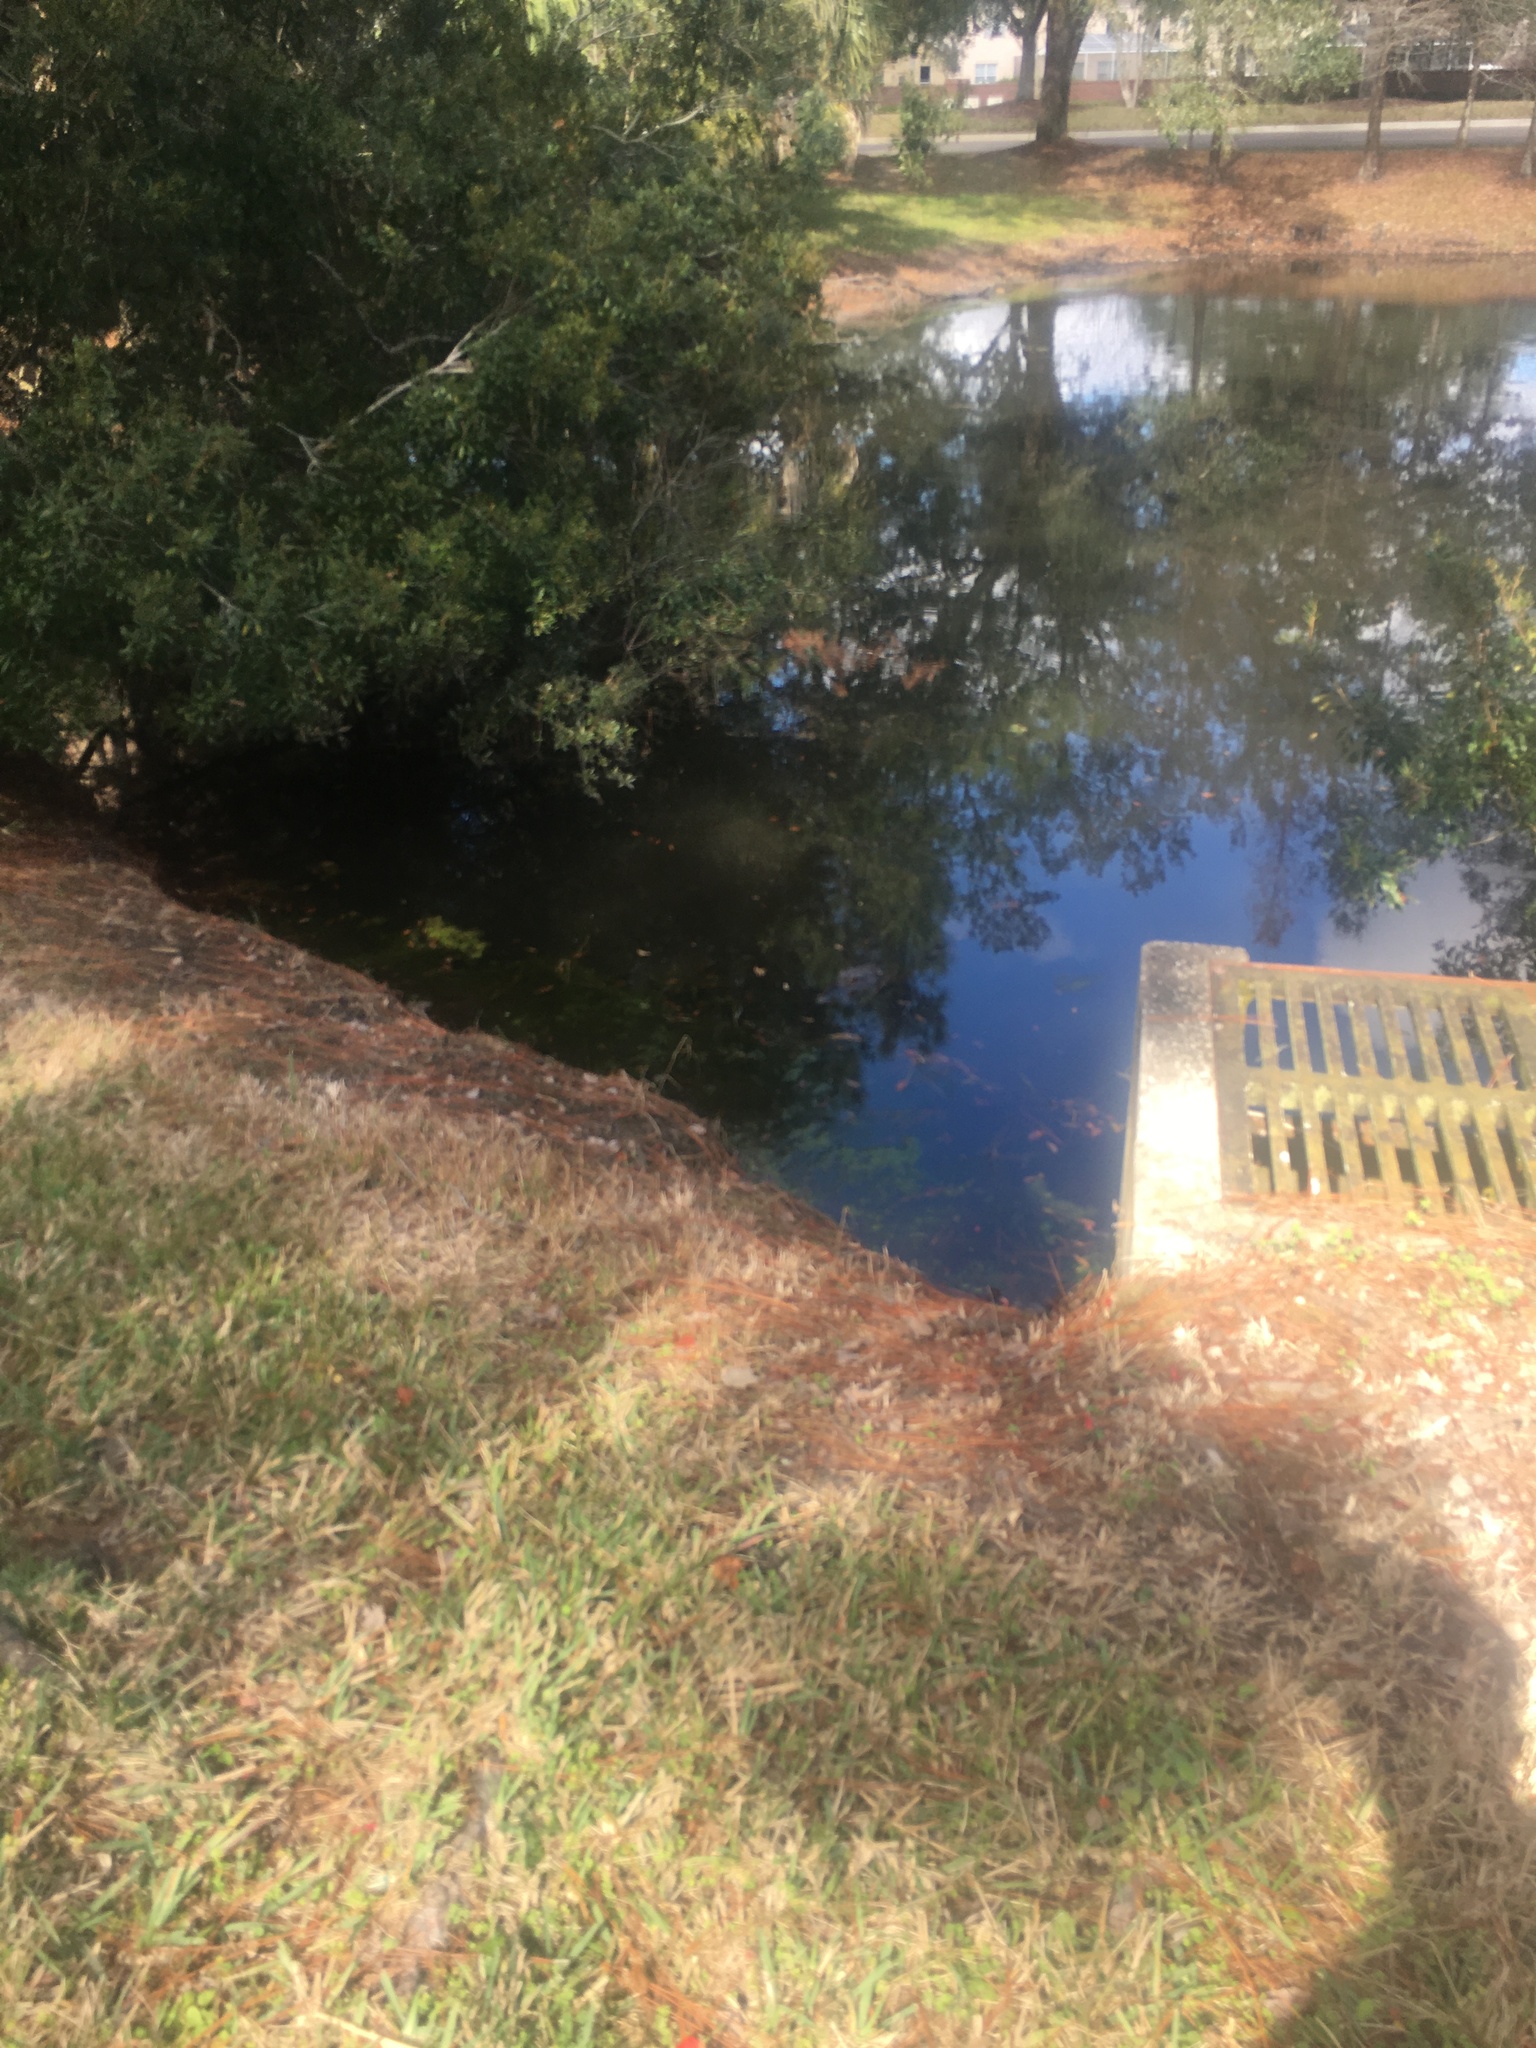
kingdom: Animalia
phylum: Chordata
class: Crocodylia
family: Alligatoridae
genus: Alligator
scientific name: Alligator mississippiensis
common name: American alligator
